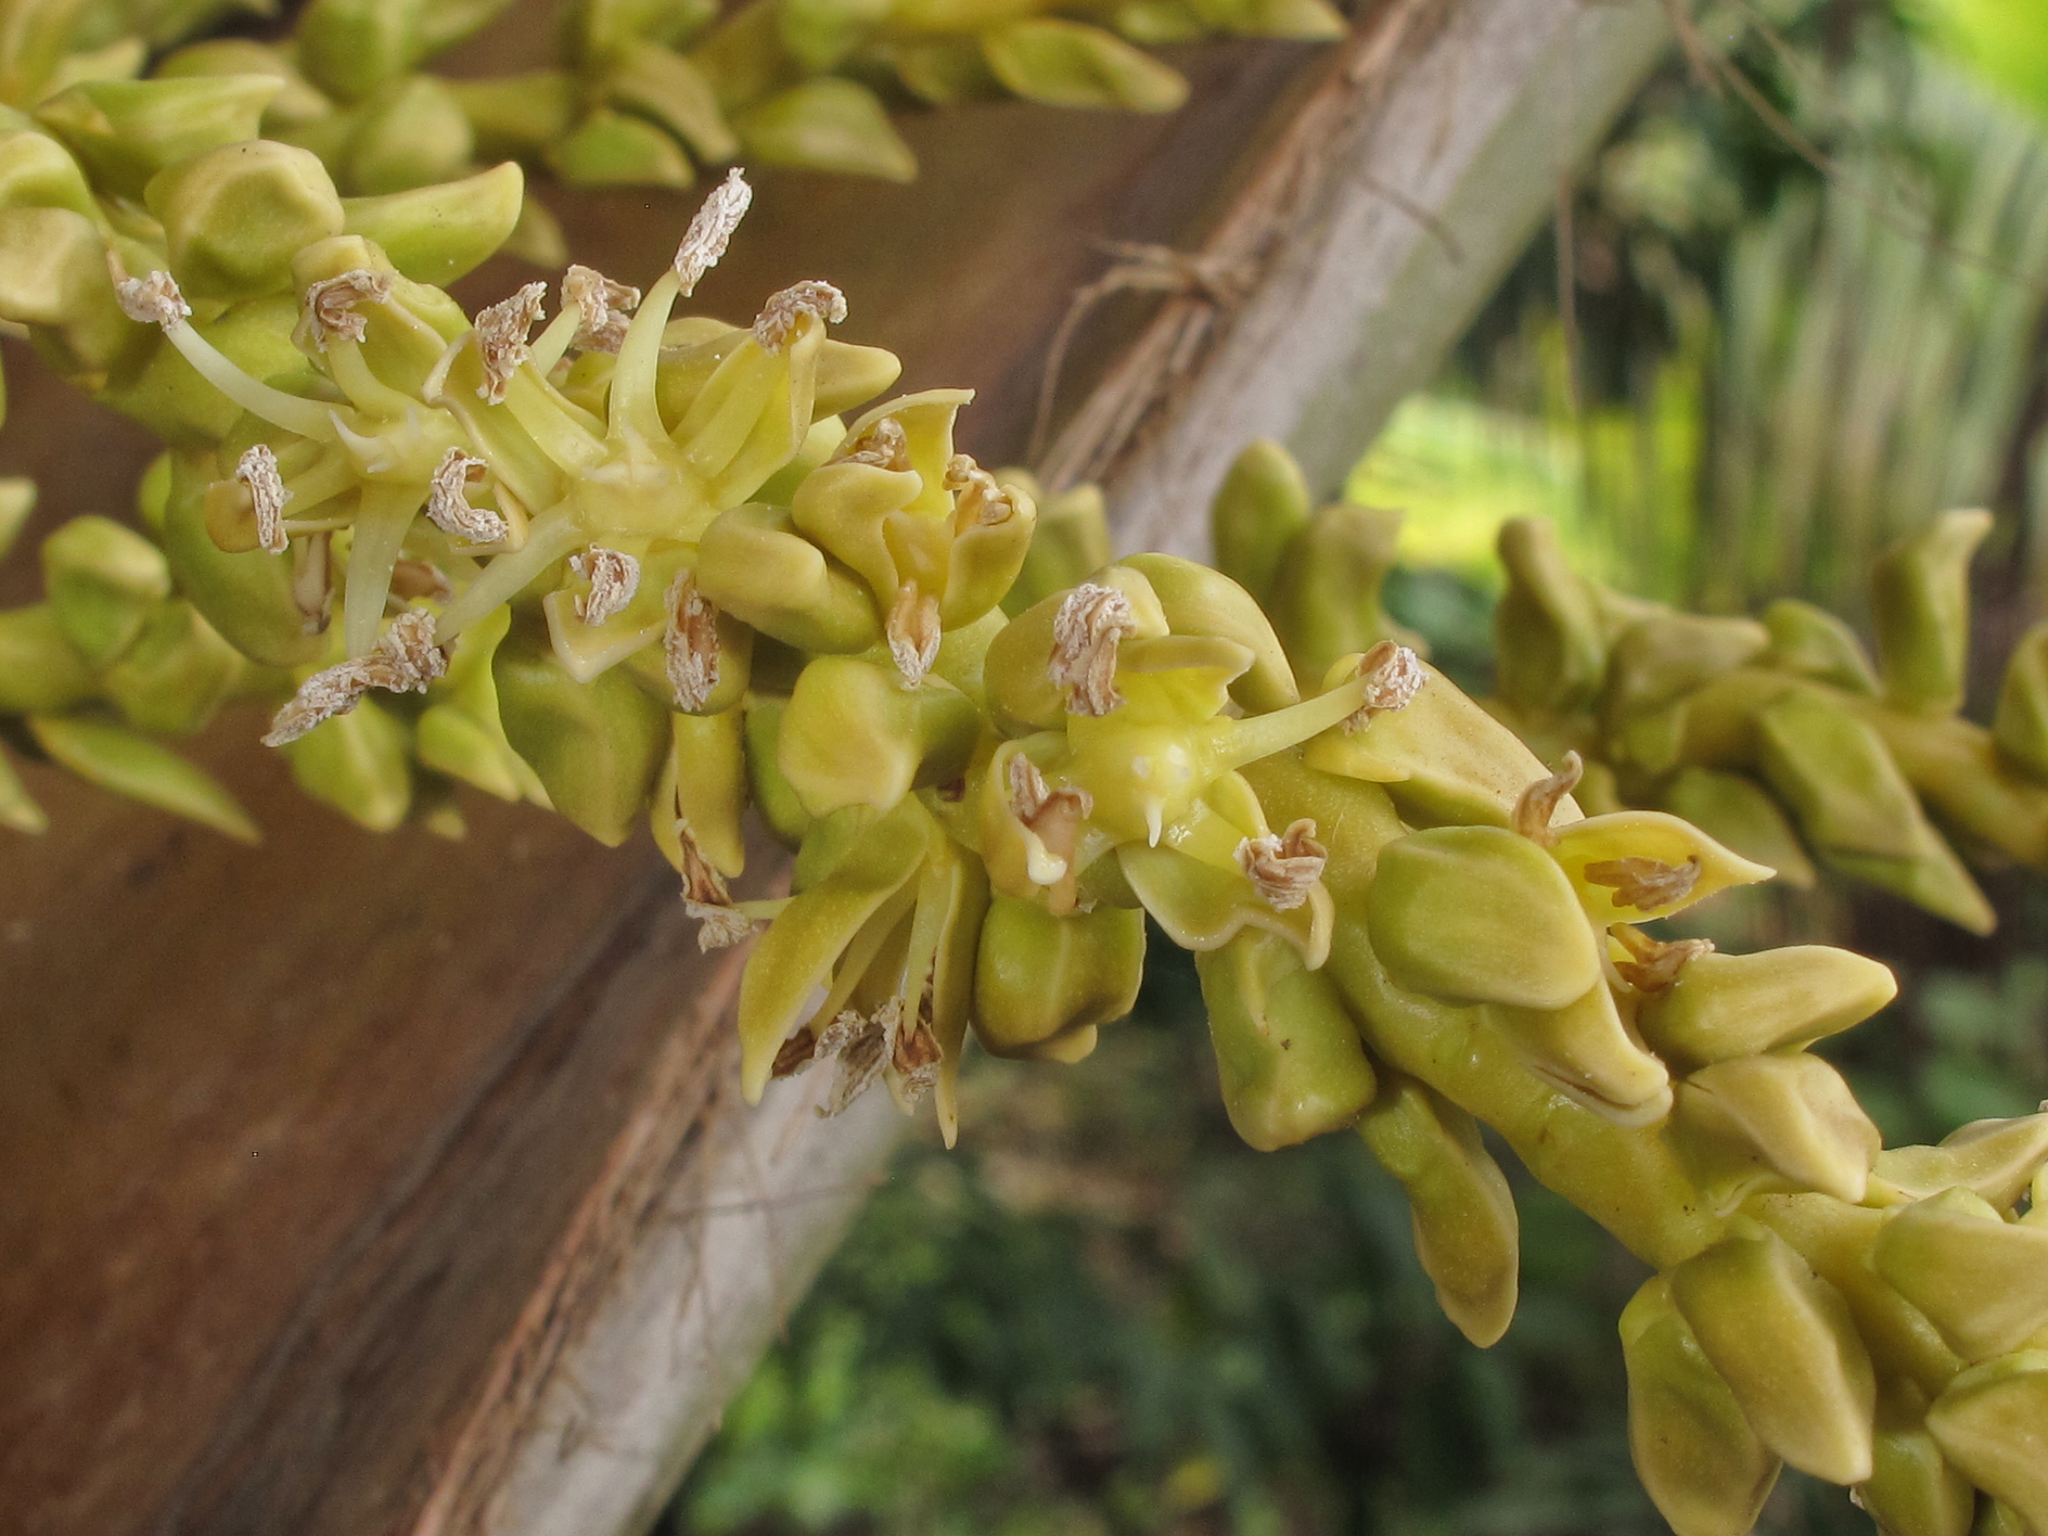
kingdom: Plantae
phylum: Tracheophyta
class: Liliopsida
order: Arecales
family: Arecaceae
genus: Cocos
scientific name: Cocos nucifera
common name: Coconut palm
